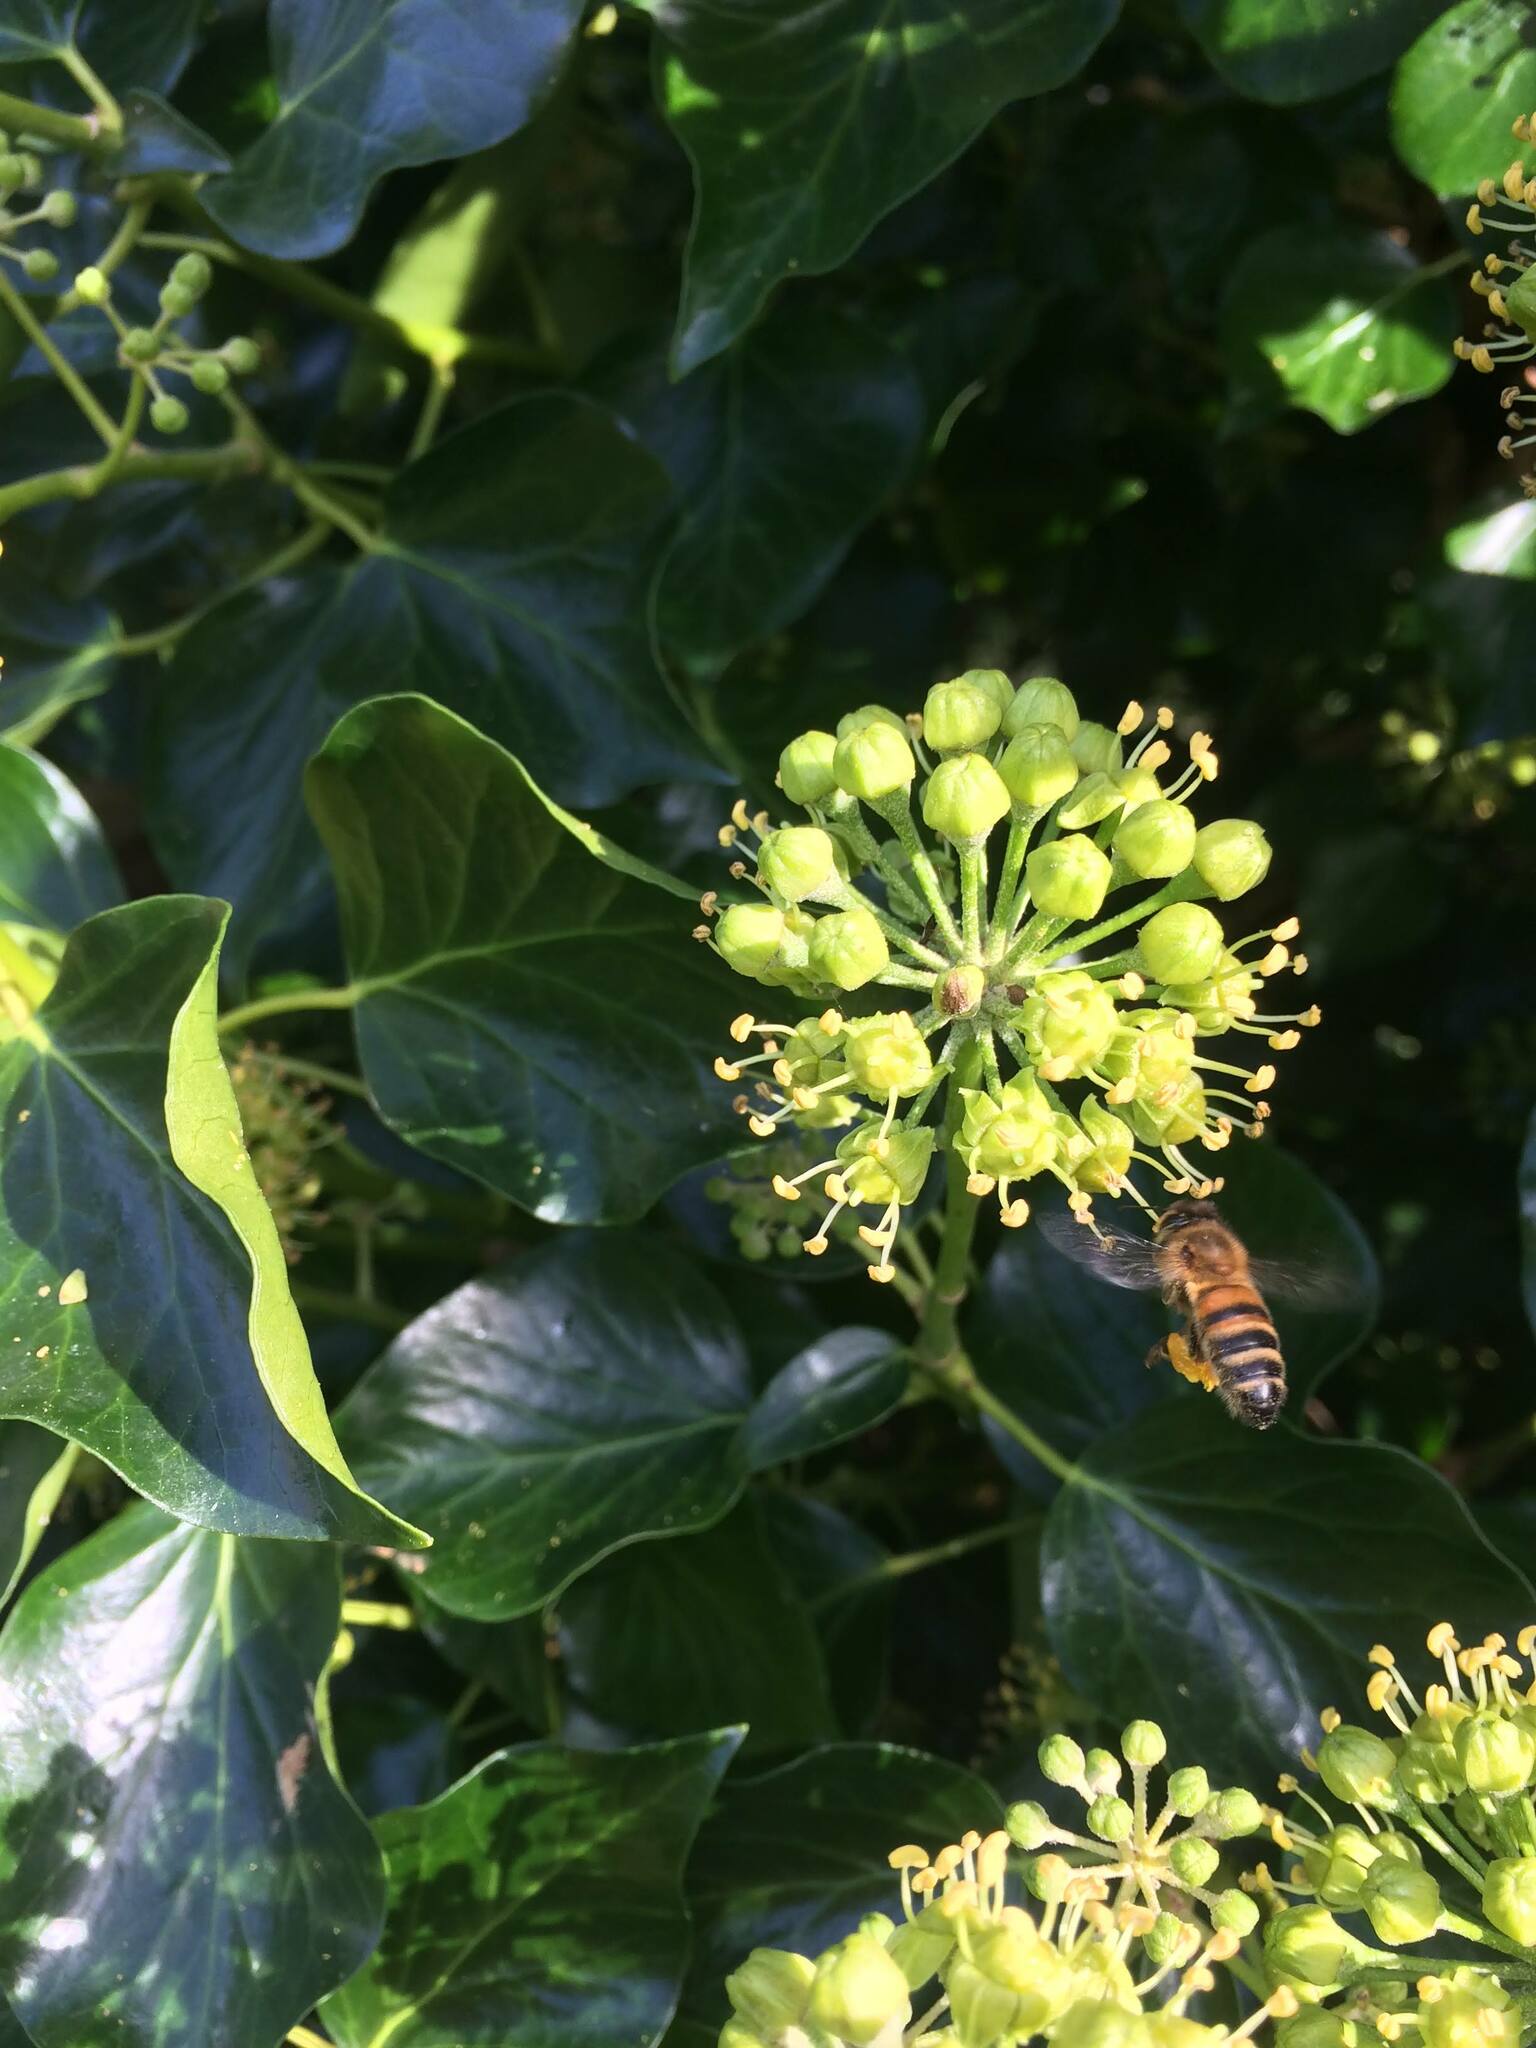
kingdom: Animalia
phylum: Arthropoda
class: Insecta
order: Hymenoptera
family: Apidae
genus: Apis
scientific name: Apis mellifera
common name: Honey bee
